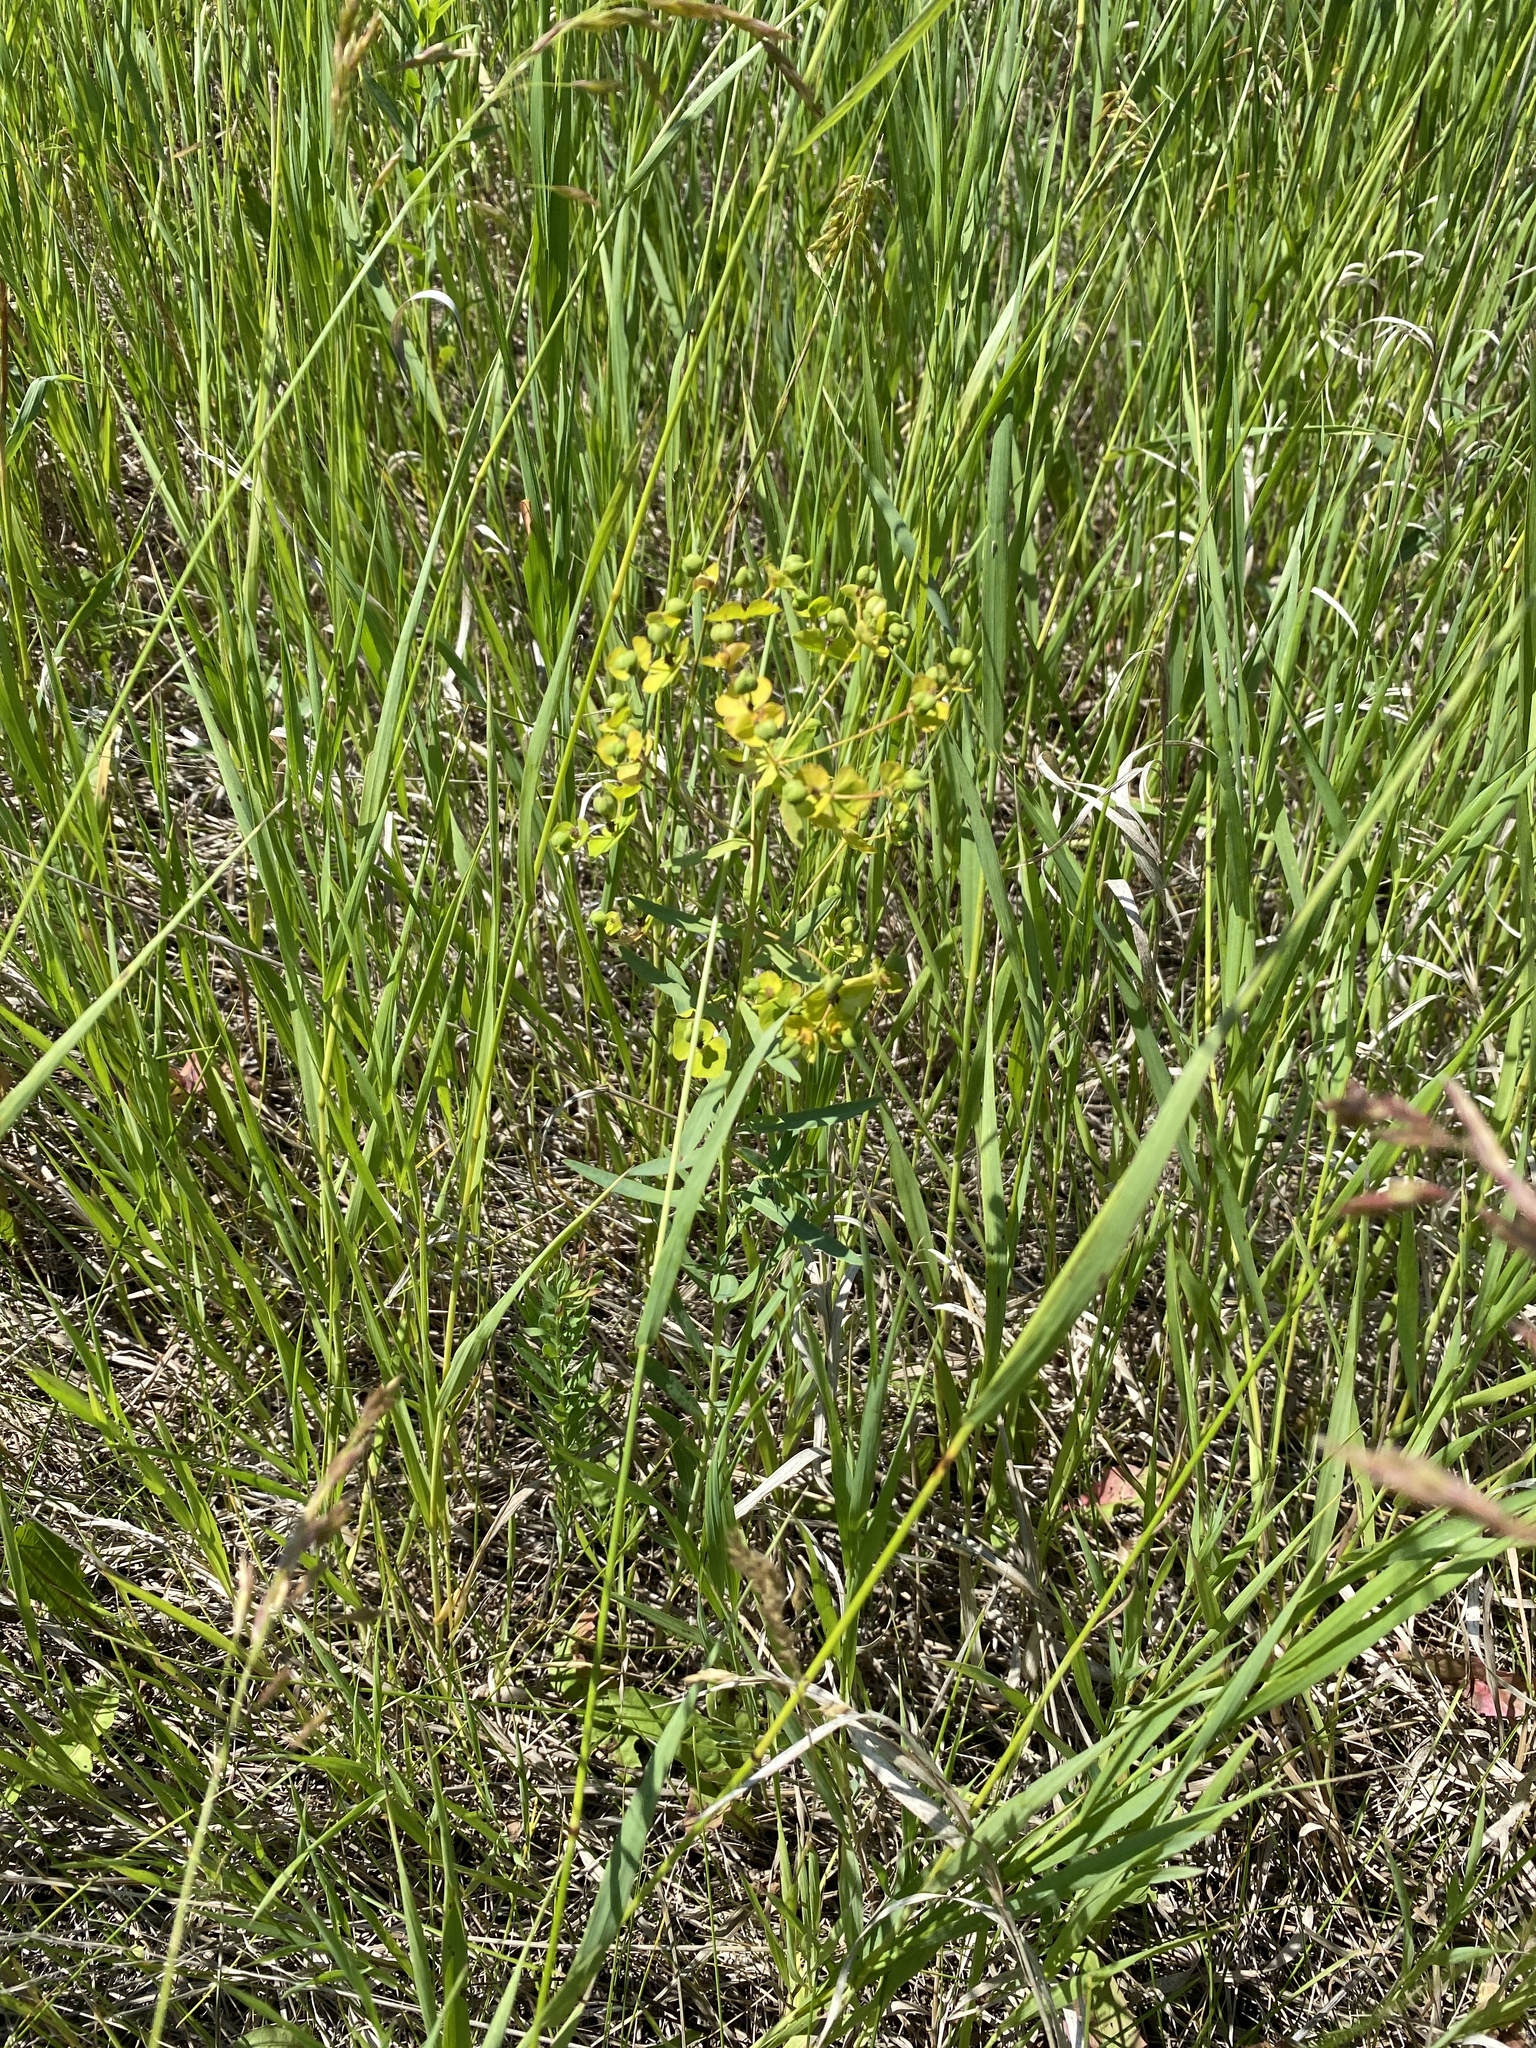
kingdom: Plantae
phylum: Tracheophyta
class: Magnoliopsida
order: Malpighiales
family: Euphorbiaceae
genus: Euphorbia
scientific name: Euphorbia virgata
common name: Leafy spurge
